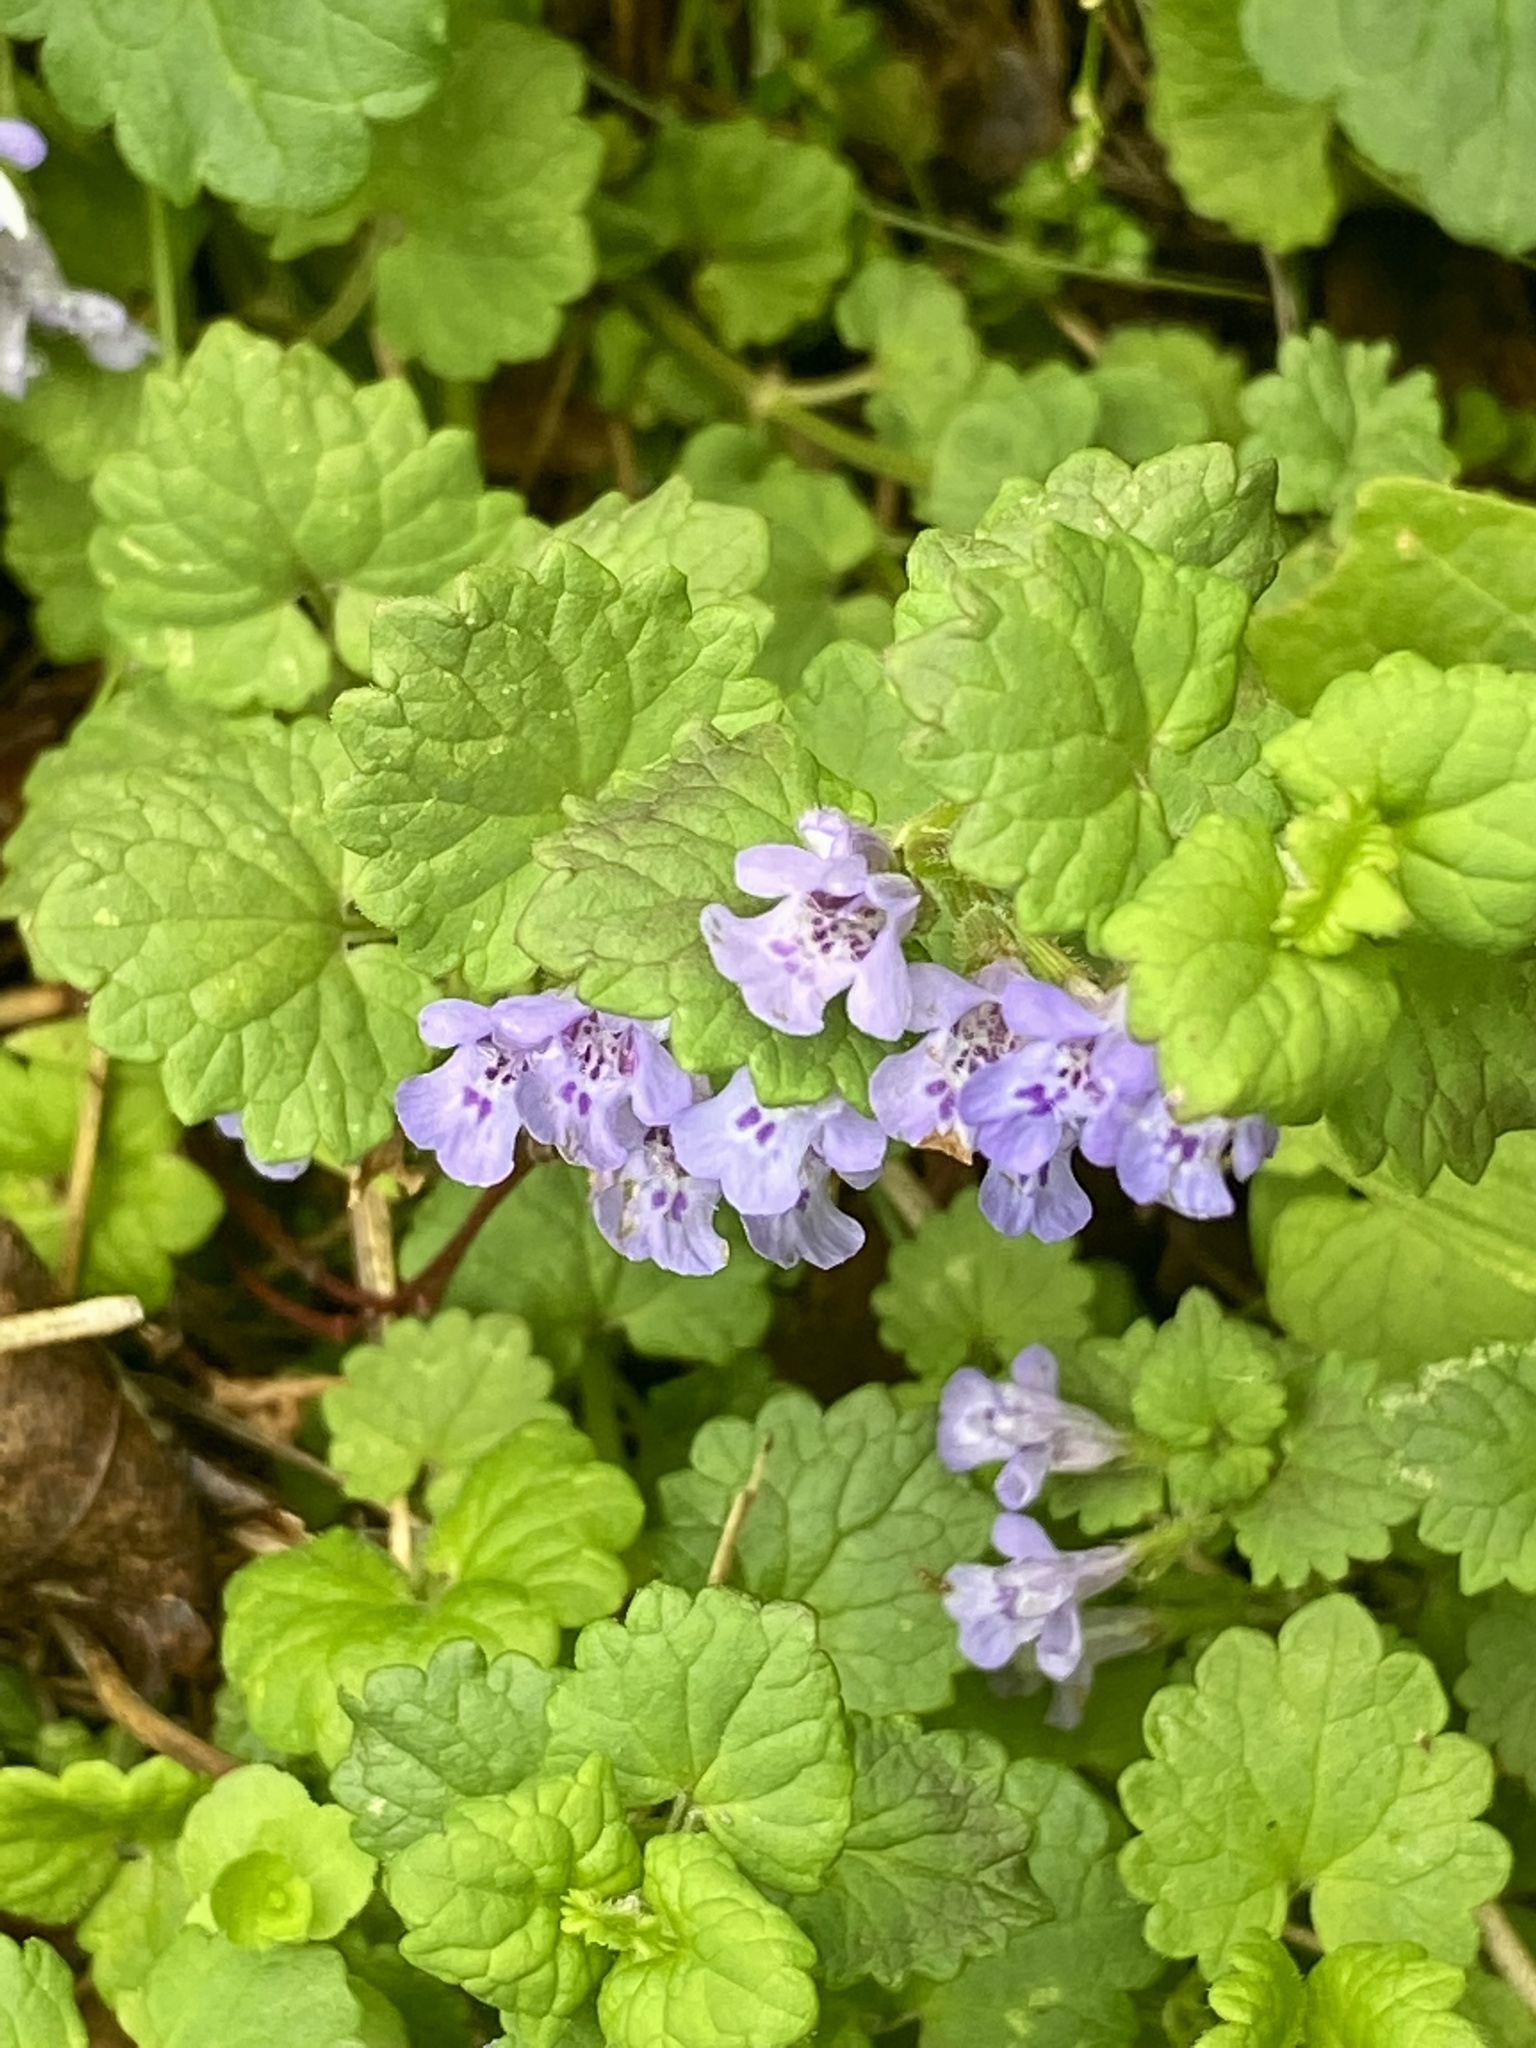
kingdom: Plantae
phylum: Tracheophyta
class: Magnoliopsida
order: Lamiales
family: Lamiaceae
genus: Glechoma
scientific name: Glechoma hederacea
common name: Ground ivy
